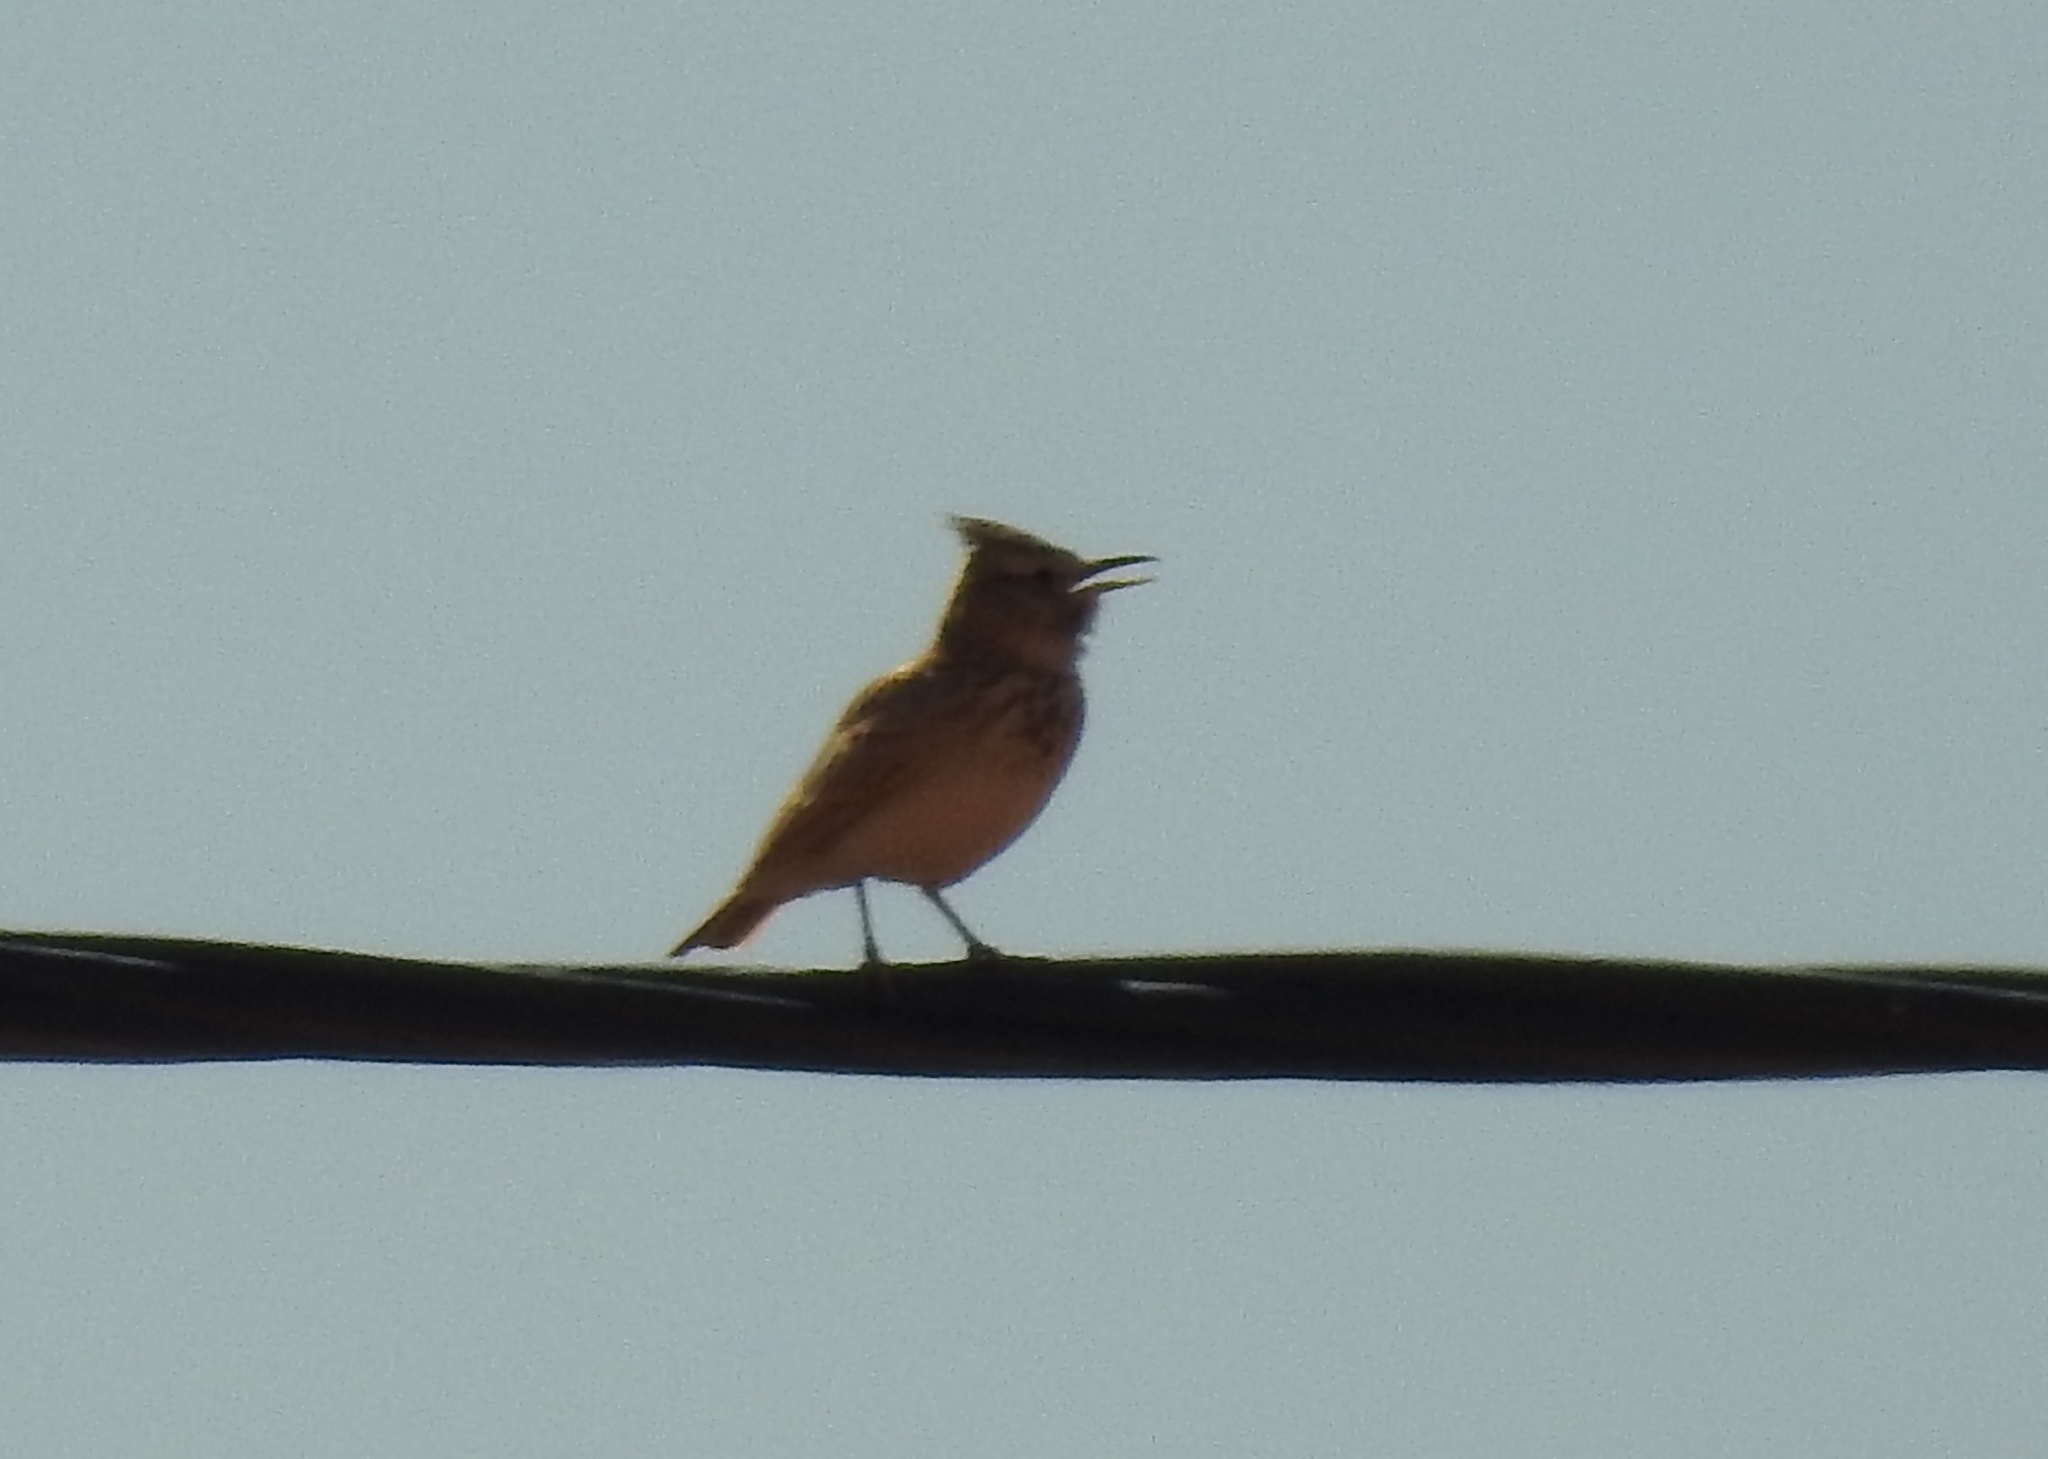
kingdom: Animalia
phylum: Chordata
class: Aves
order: Passeriformes
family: Alaudidae
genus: Galerida
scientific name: Galerida cristata
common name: Crested lark
